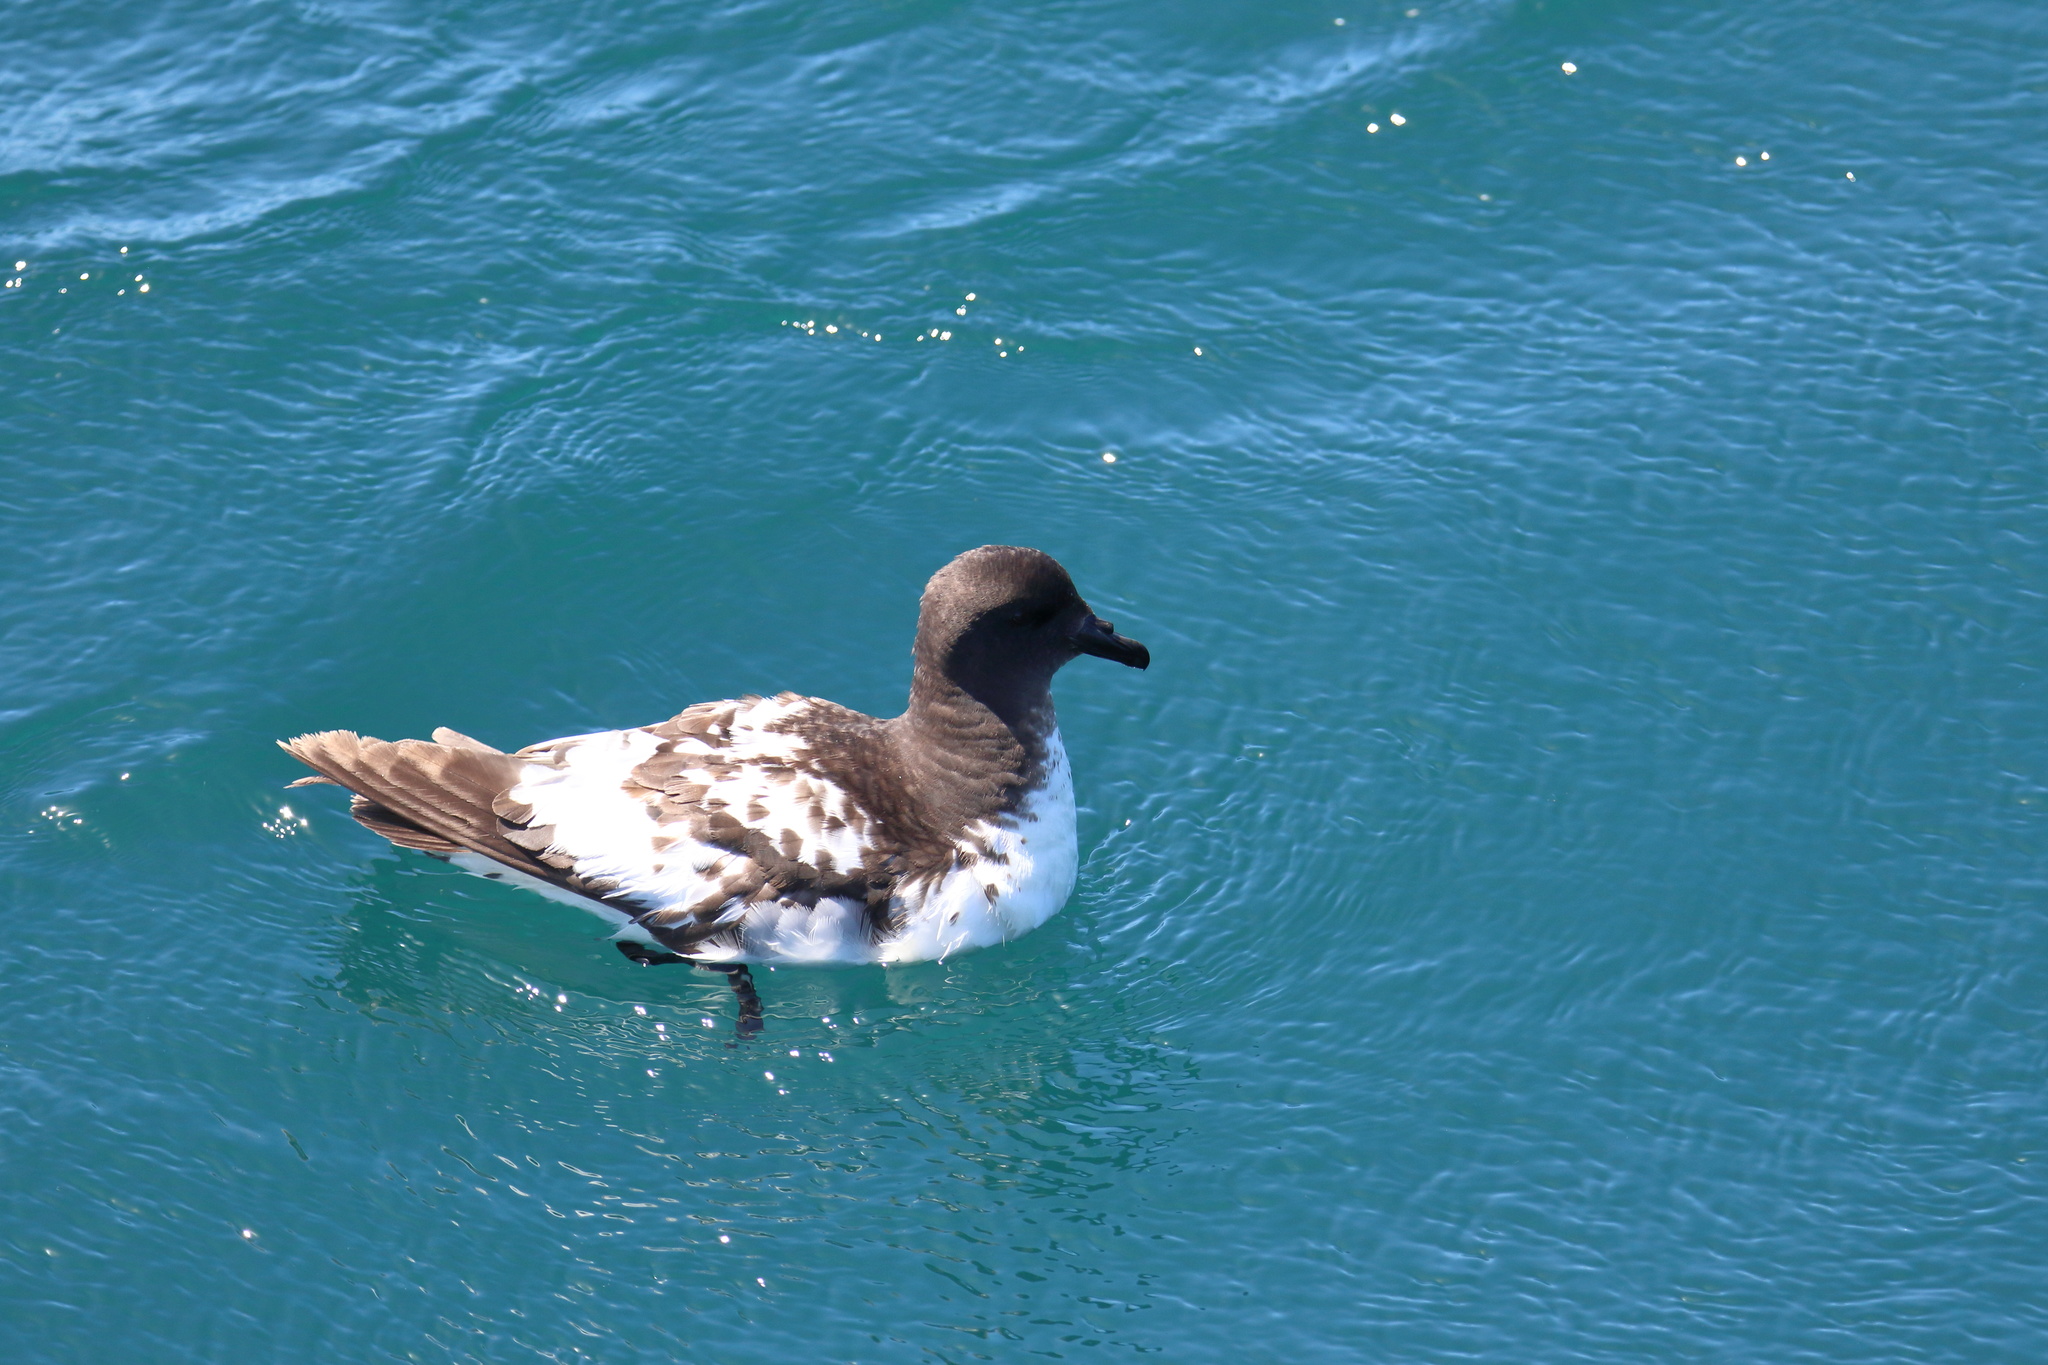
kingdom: Animalia
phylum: Chordata
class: Aves
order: Procellariiformes
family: Procellariidae
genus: Daption
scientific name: Daption capense
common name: Cape petrel
